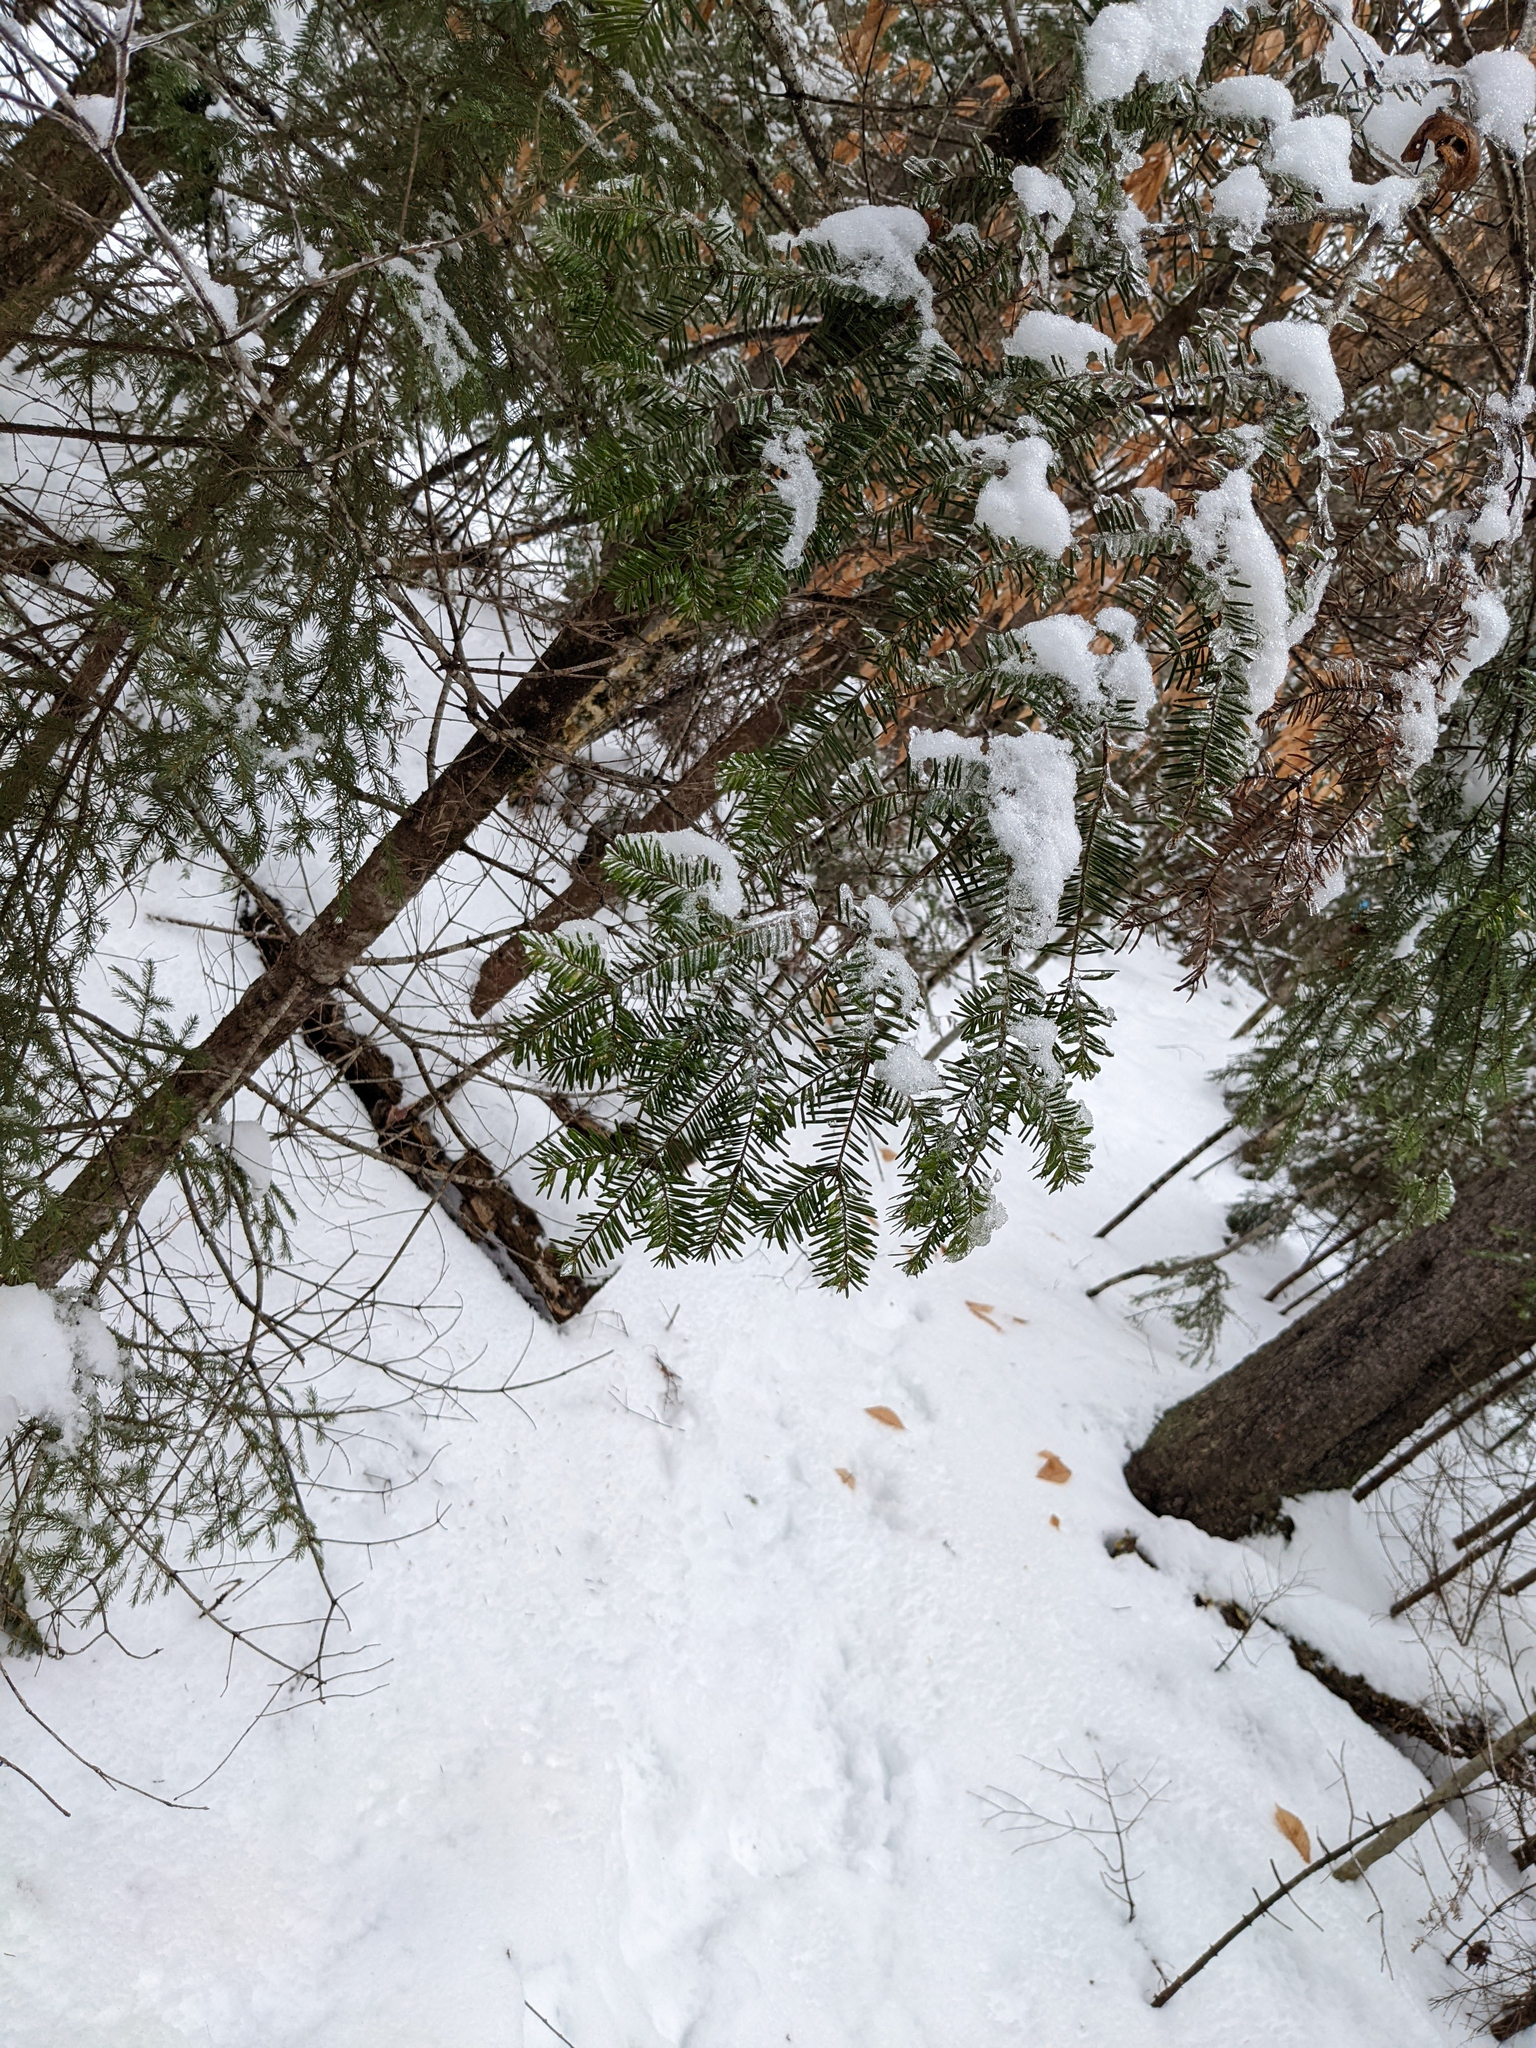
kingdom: Plantae
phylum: Tracheophyta
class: Pinopsida
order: Pinales
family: Pinaceae
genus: Abies
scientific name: Abies balsamea
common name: Balsam fir
